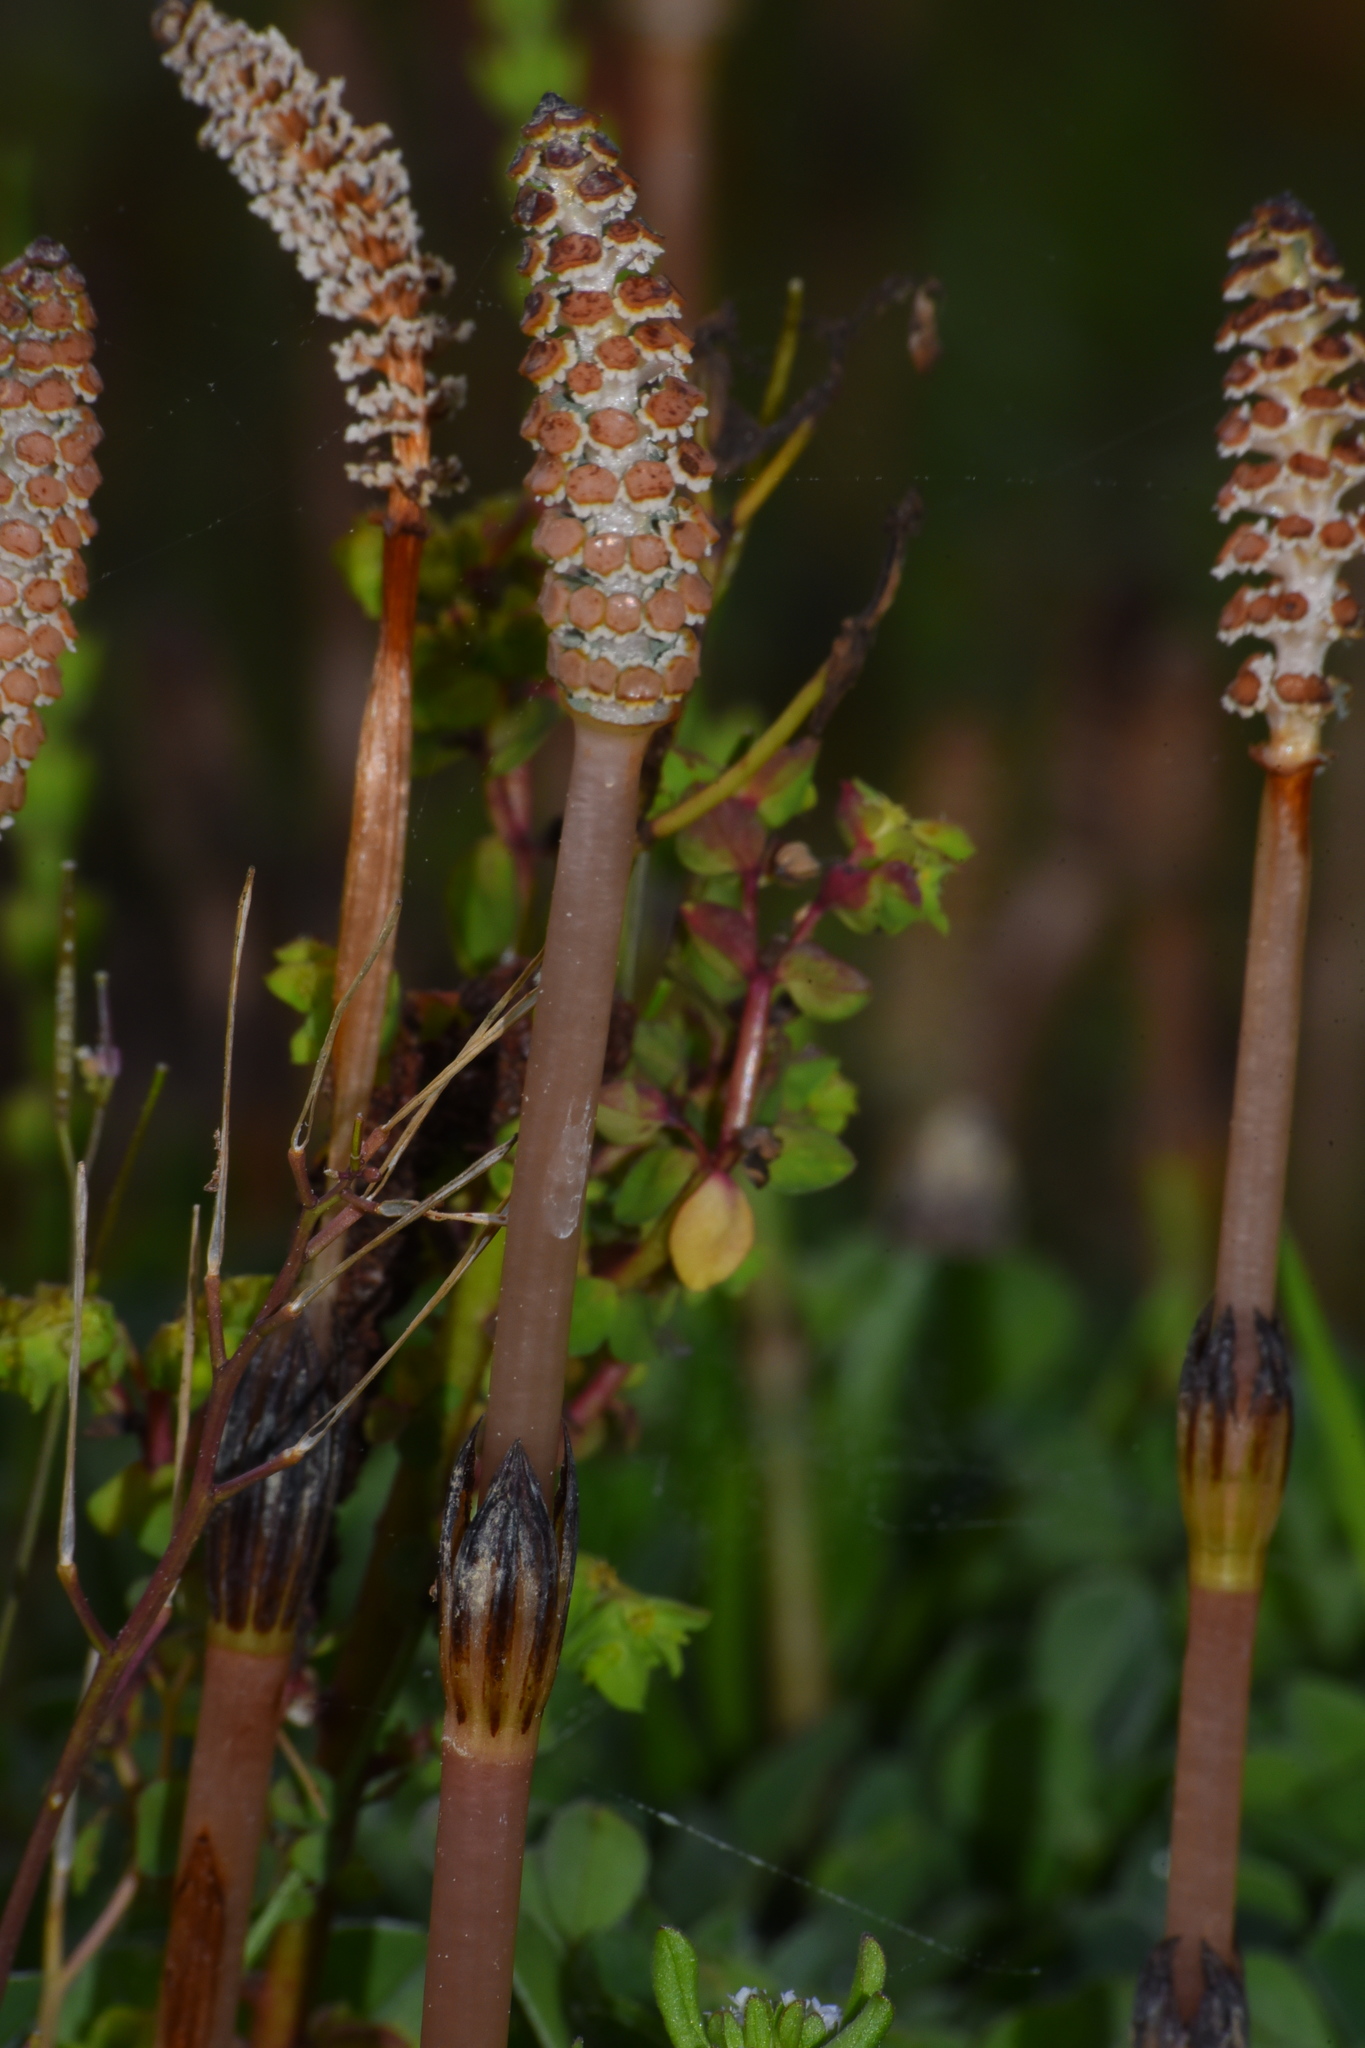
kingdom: Plantae
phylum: Tracheophyta
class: Polypodiopsida
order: Equisetales
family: Equisetaceae
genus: Equisetum
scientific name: Equisetum arvense
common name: Field horsetail
